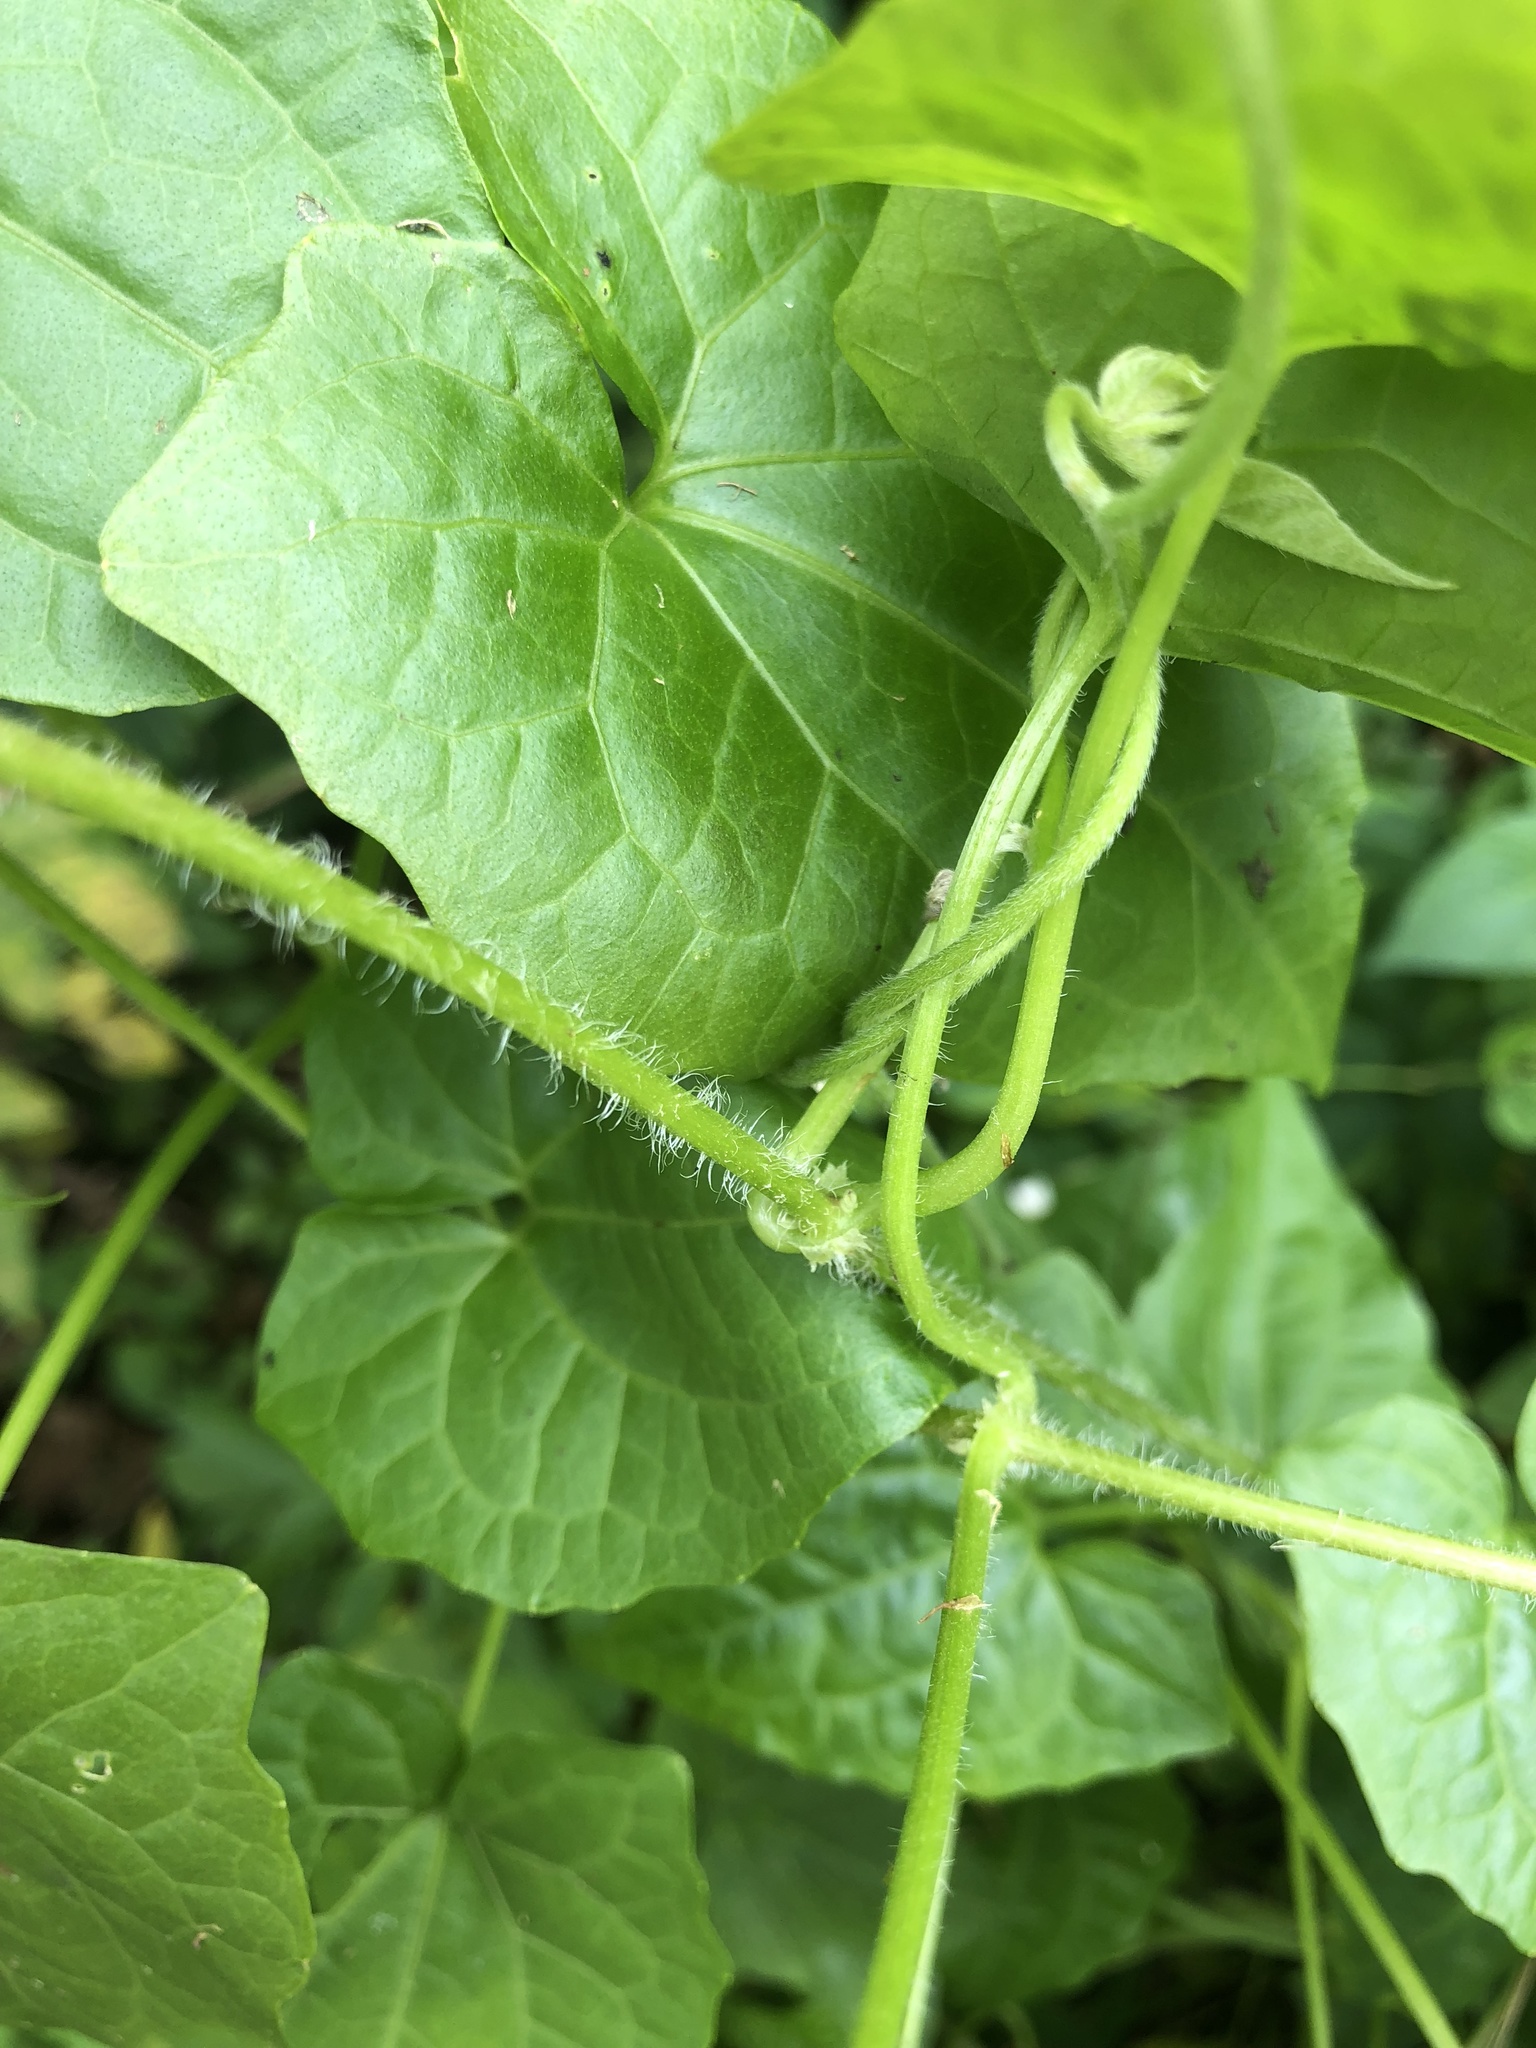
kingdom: Plantae
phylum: Tracheophyta
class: Magnoliopsida
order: Asterales
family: Asteraceae
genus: Mikania
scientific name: Mikania micrantha
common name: Mile-a-minute
